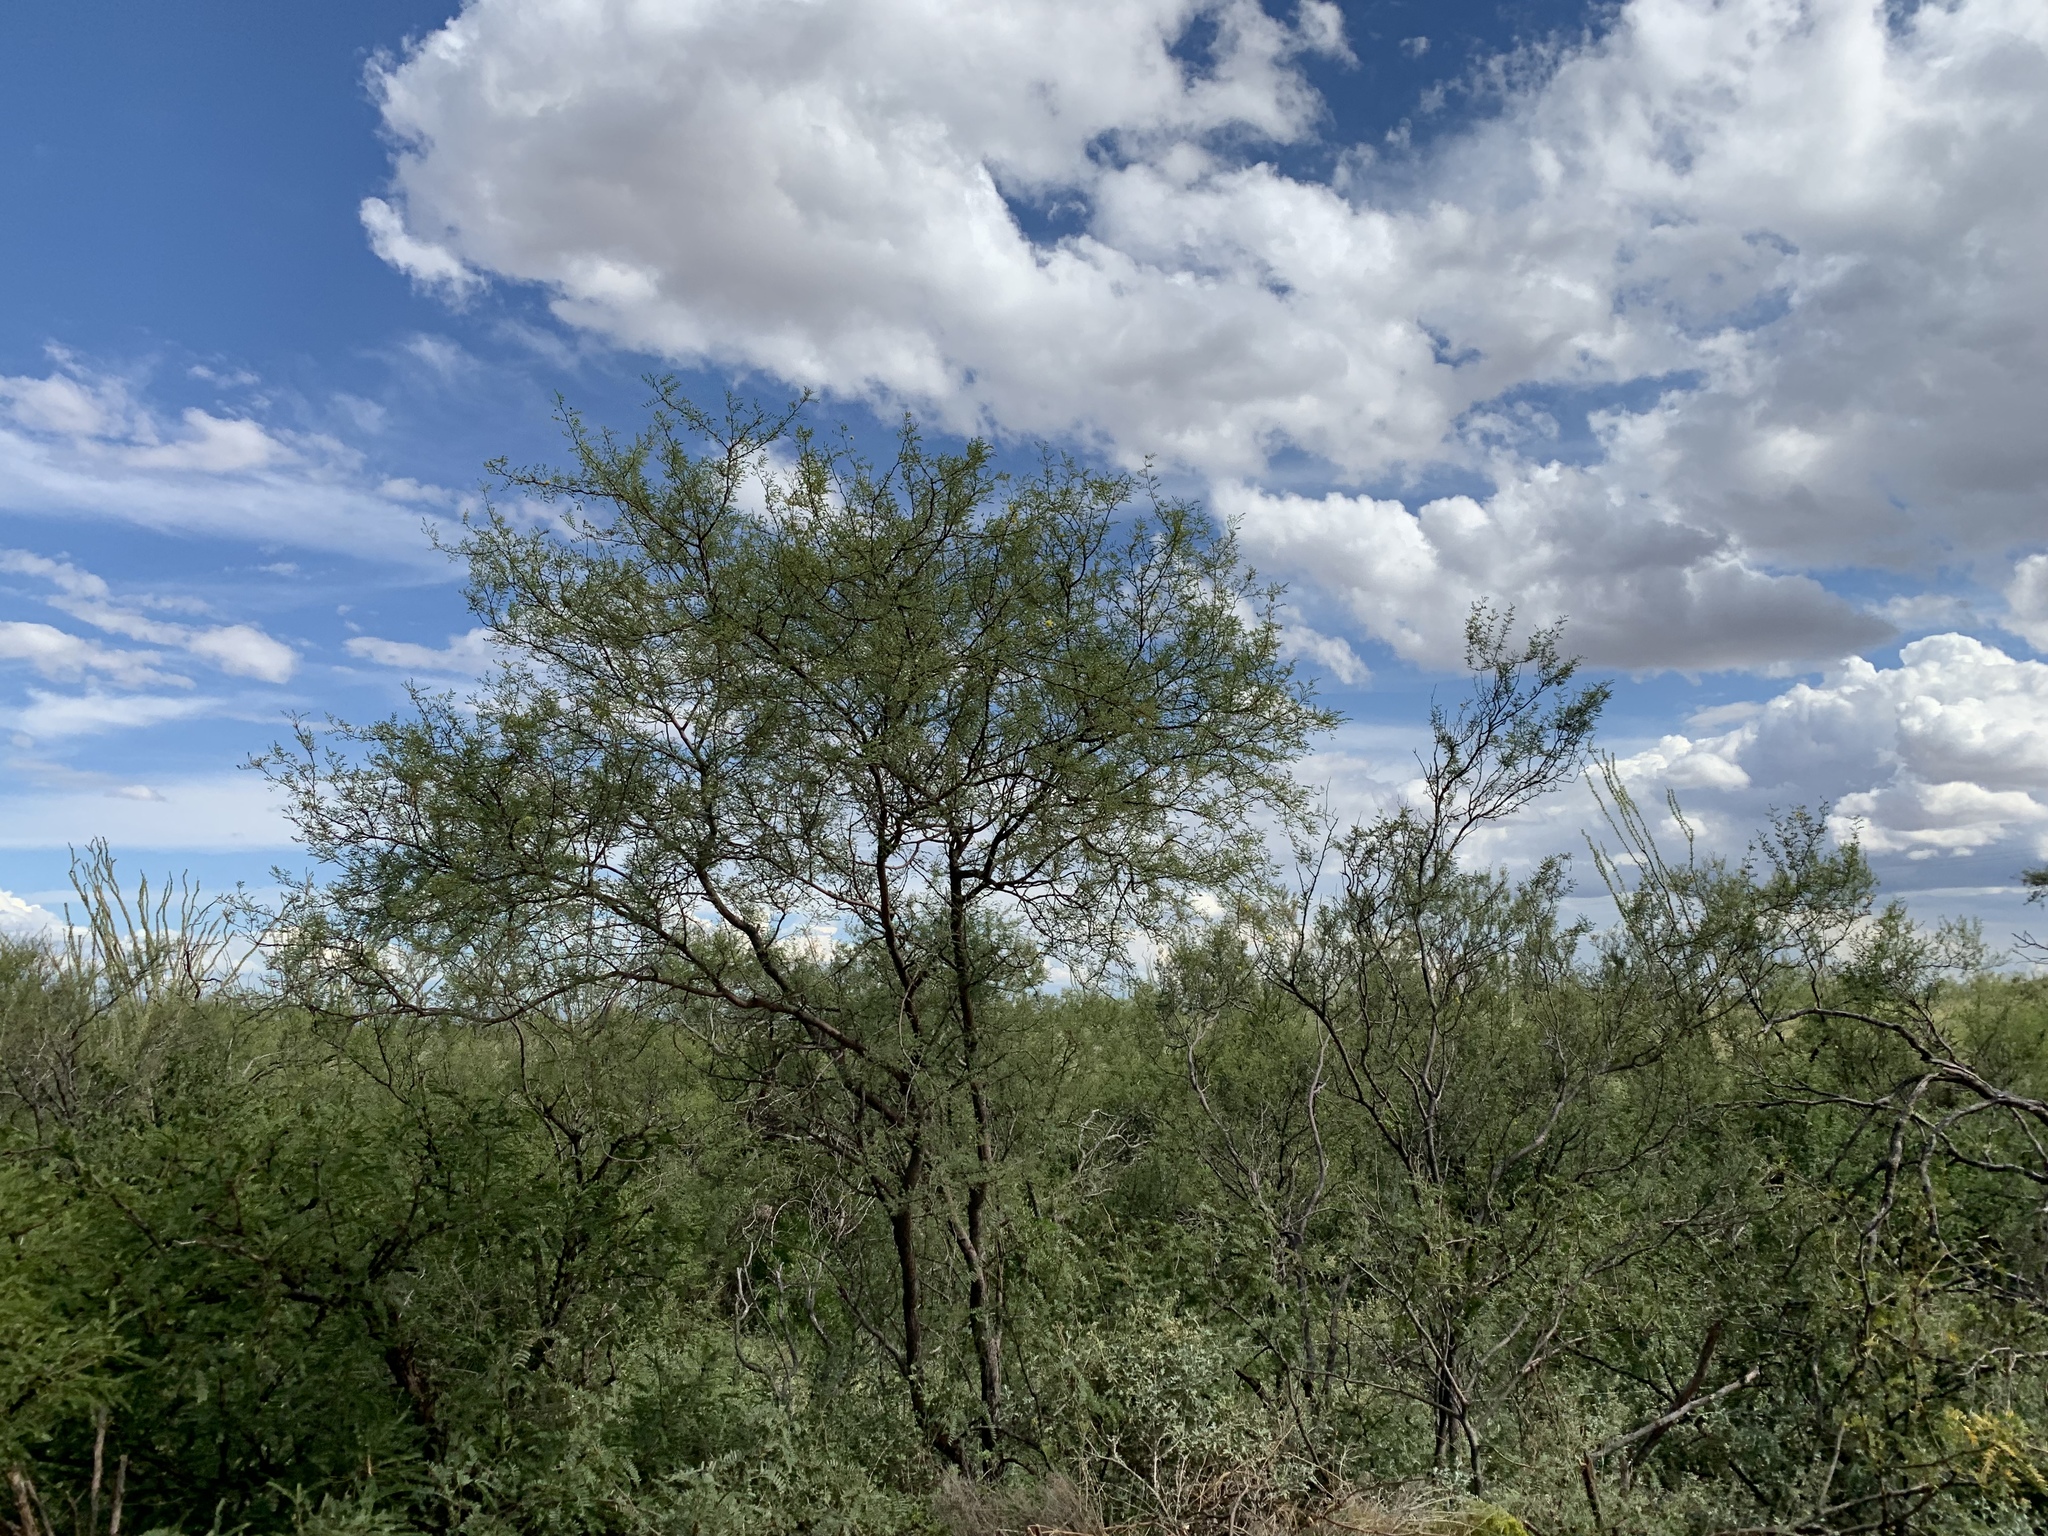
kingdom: Plantae
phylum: Tracheophyta
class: Magnoliopsida
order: Fabales
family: Fabaceae
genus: Vachellia
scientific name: Vachellia constricta
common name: Mescat acacia
